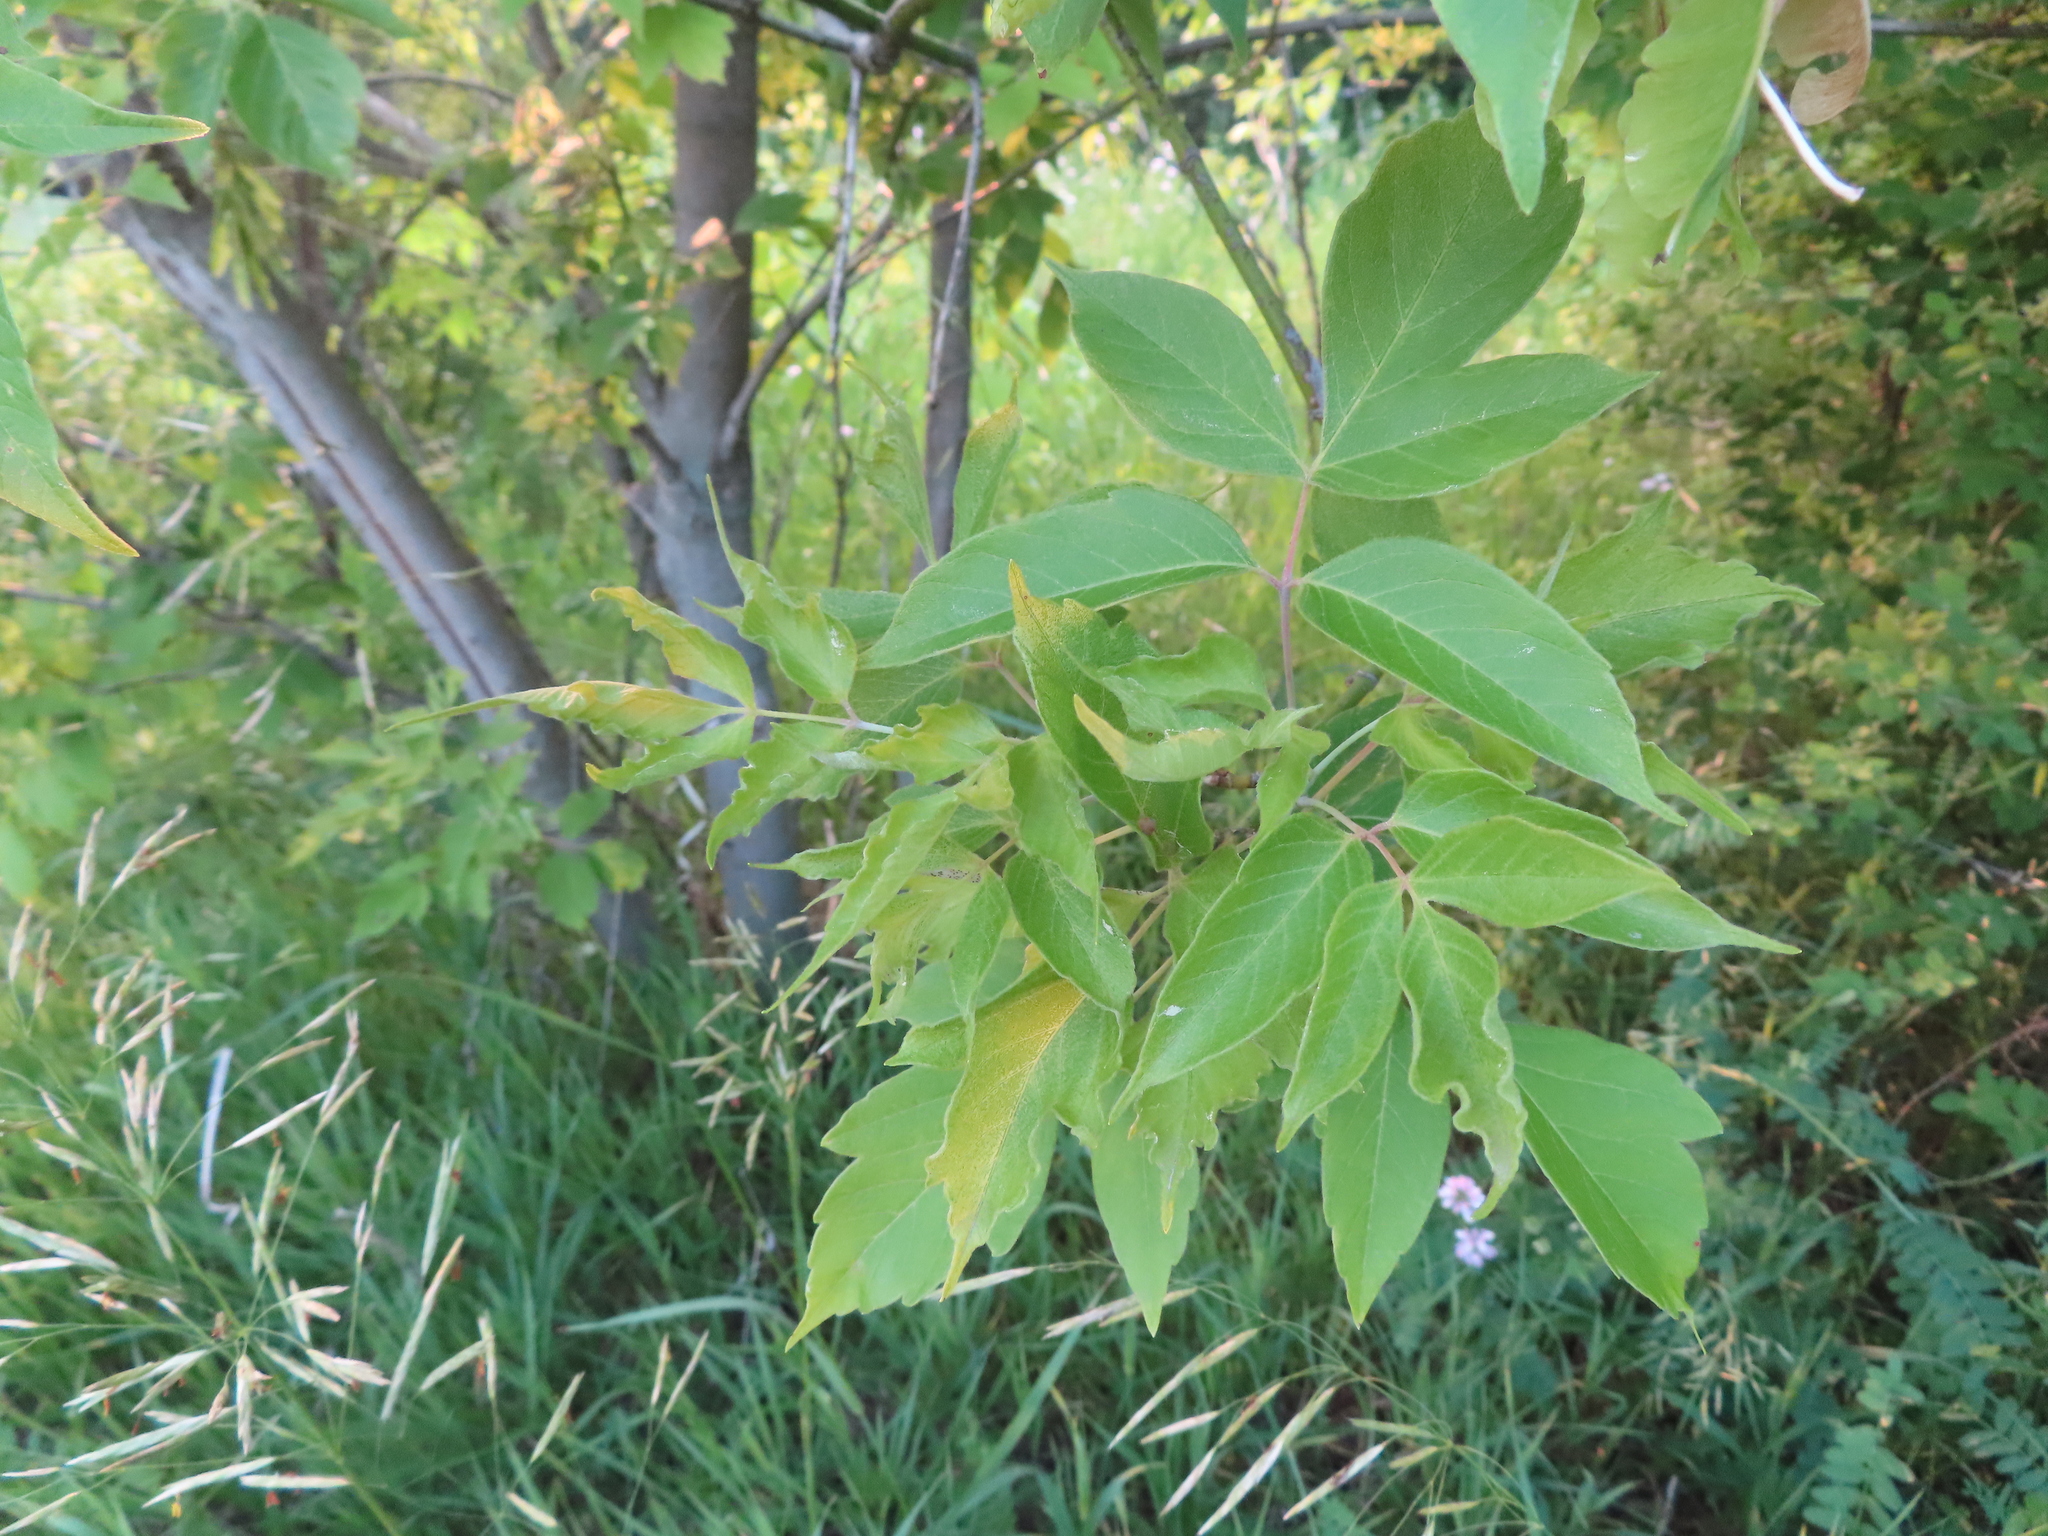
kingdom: Plantae
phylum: Tracheophyta
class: Magnoliopsida
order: Sapindales
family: Sapindaceae
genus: Acer
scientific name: Acer negundo
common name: Ashleaf maple
